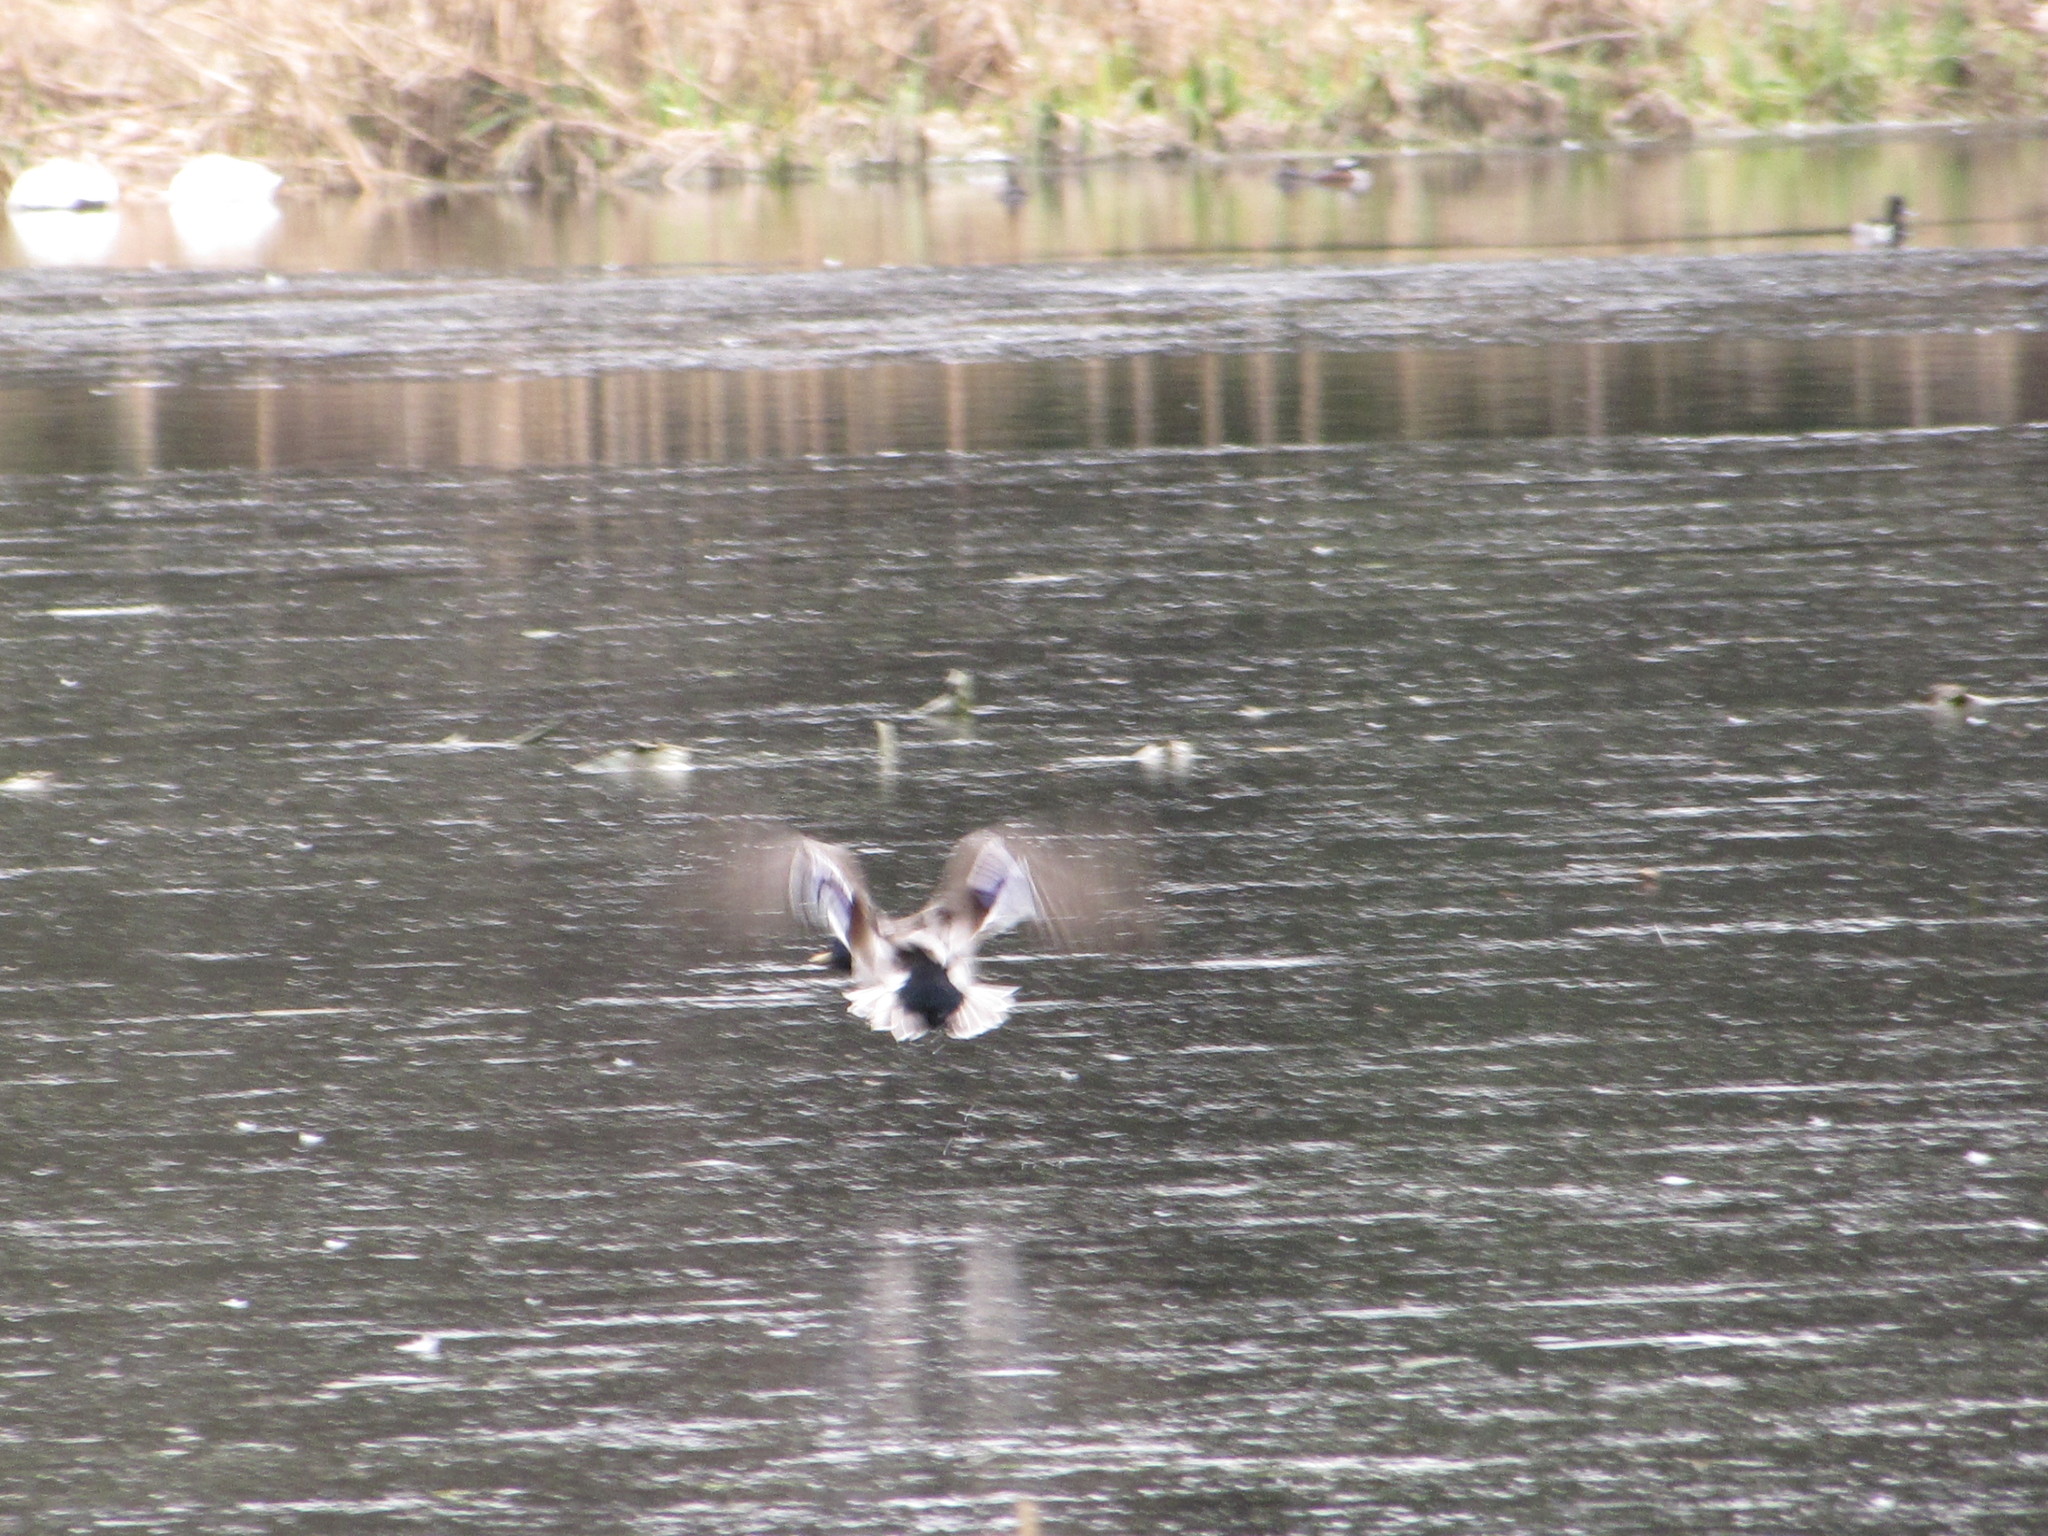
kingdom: Animalia
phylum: Chordata
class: Aves
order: Anseriformes
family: Anatidae
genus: Anas
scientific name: Anas platyrhynchos
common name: Mallard
